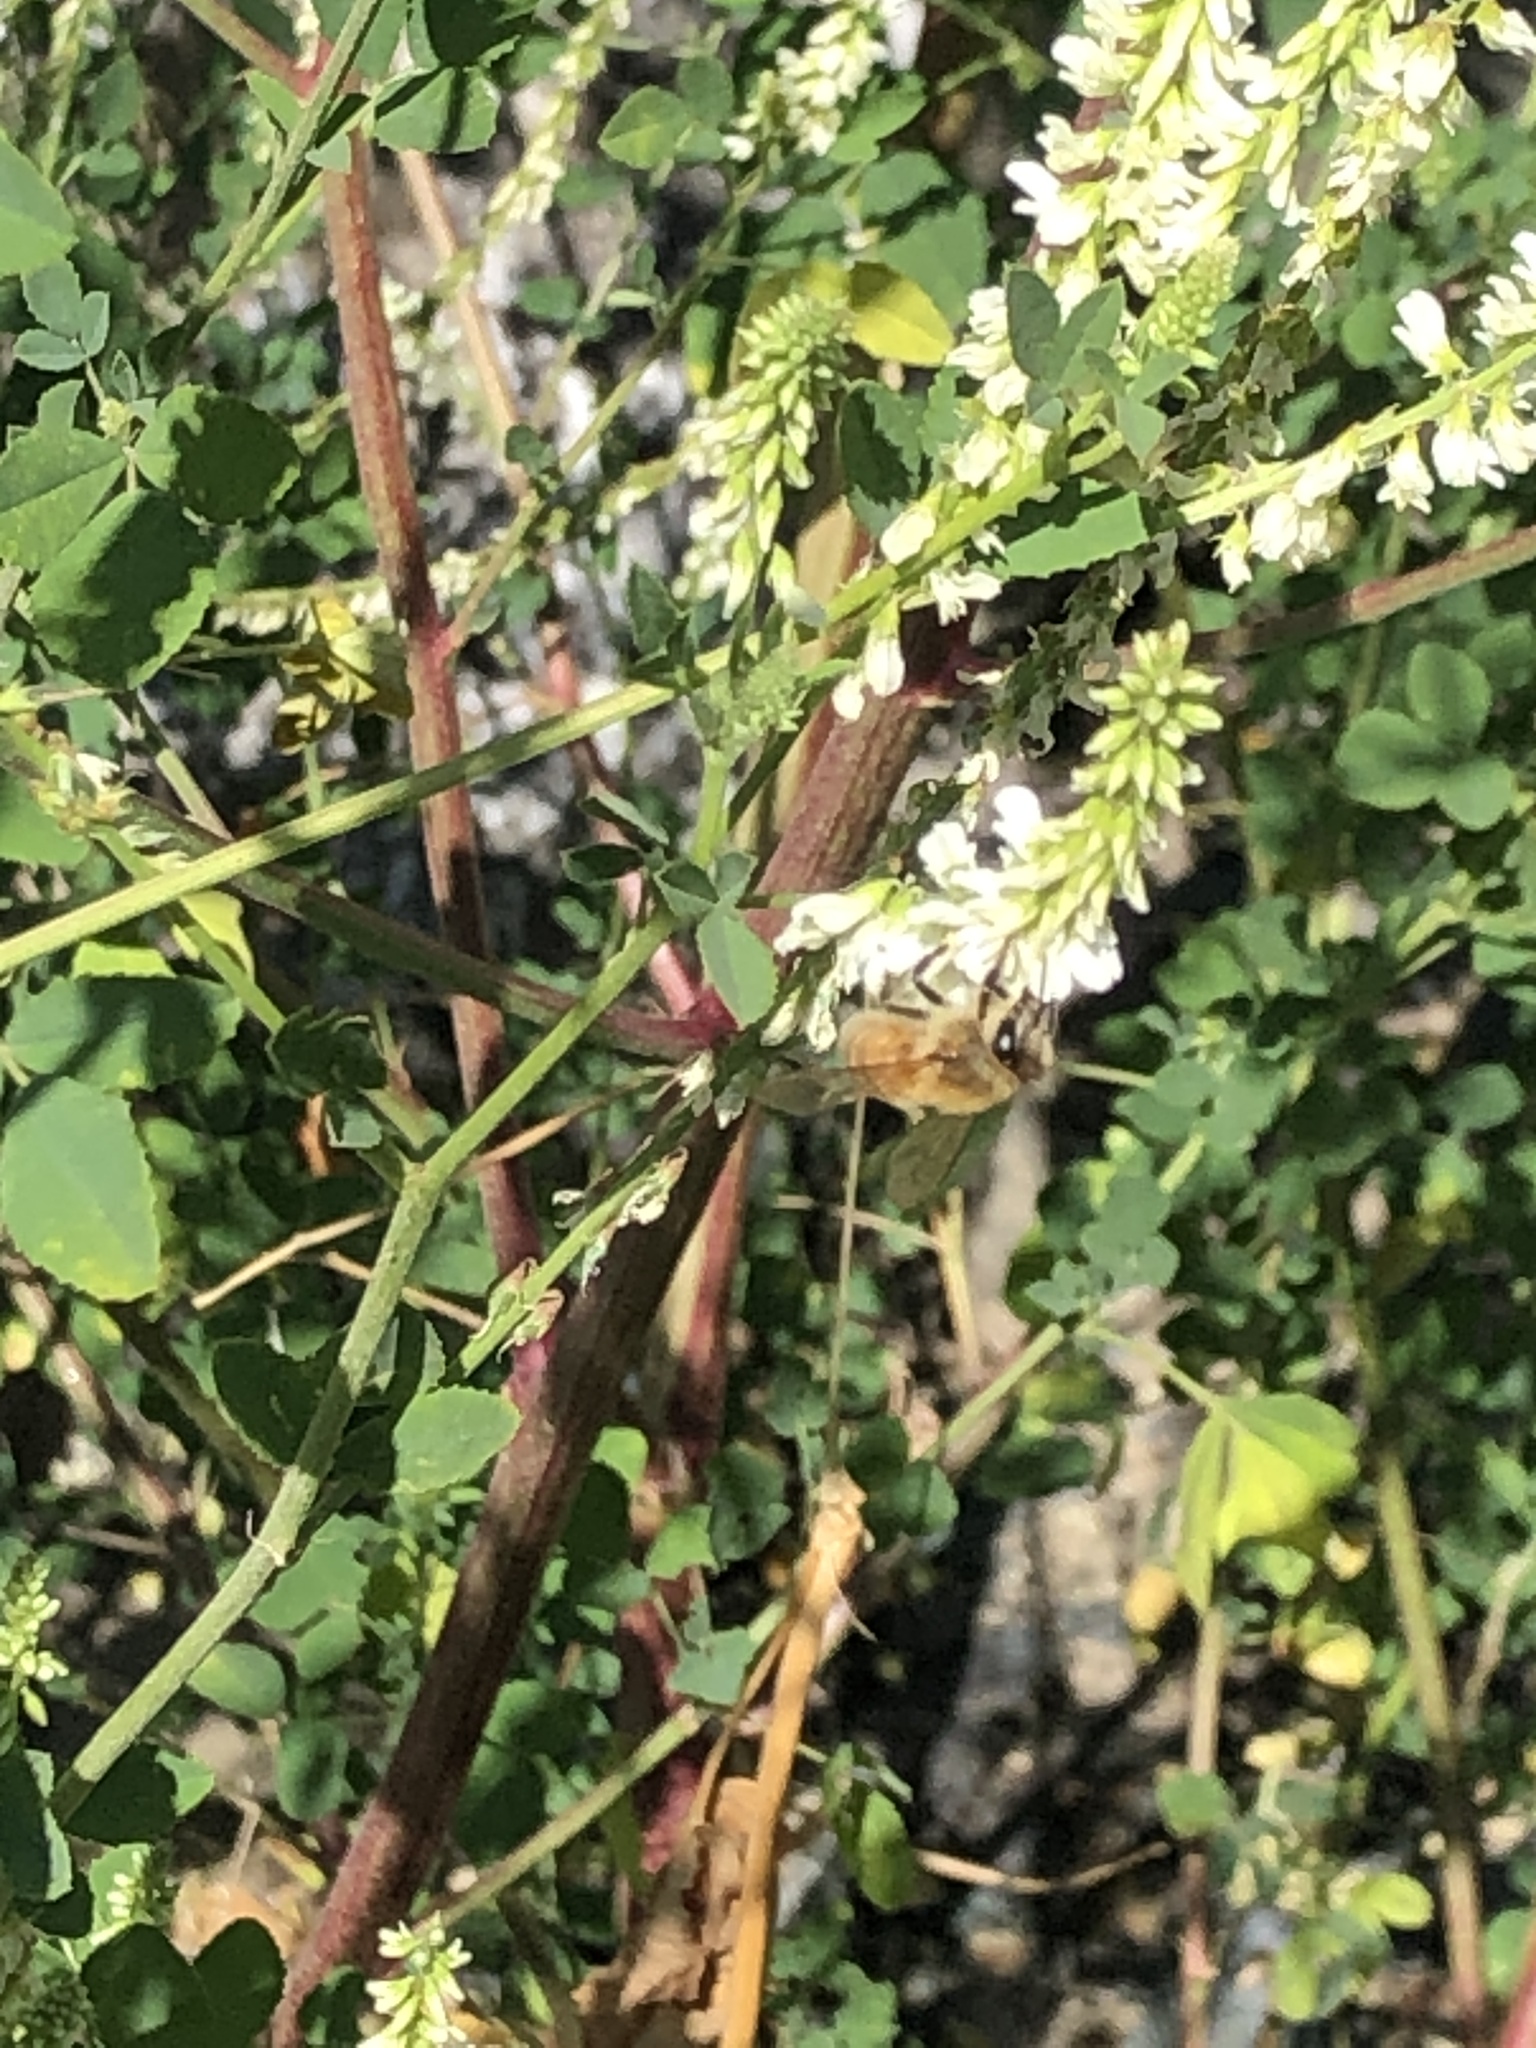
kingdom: Animalia
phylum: Arthropoda
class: Insecta
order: Hymenoptera
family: Apidae
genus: Apis
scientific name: Apis mellifera
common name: Honey bee
